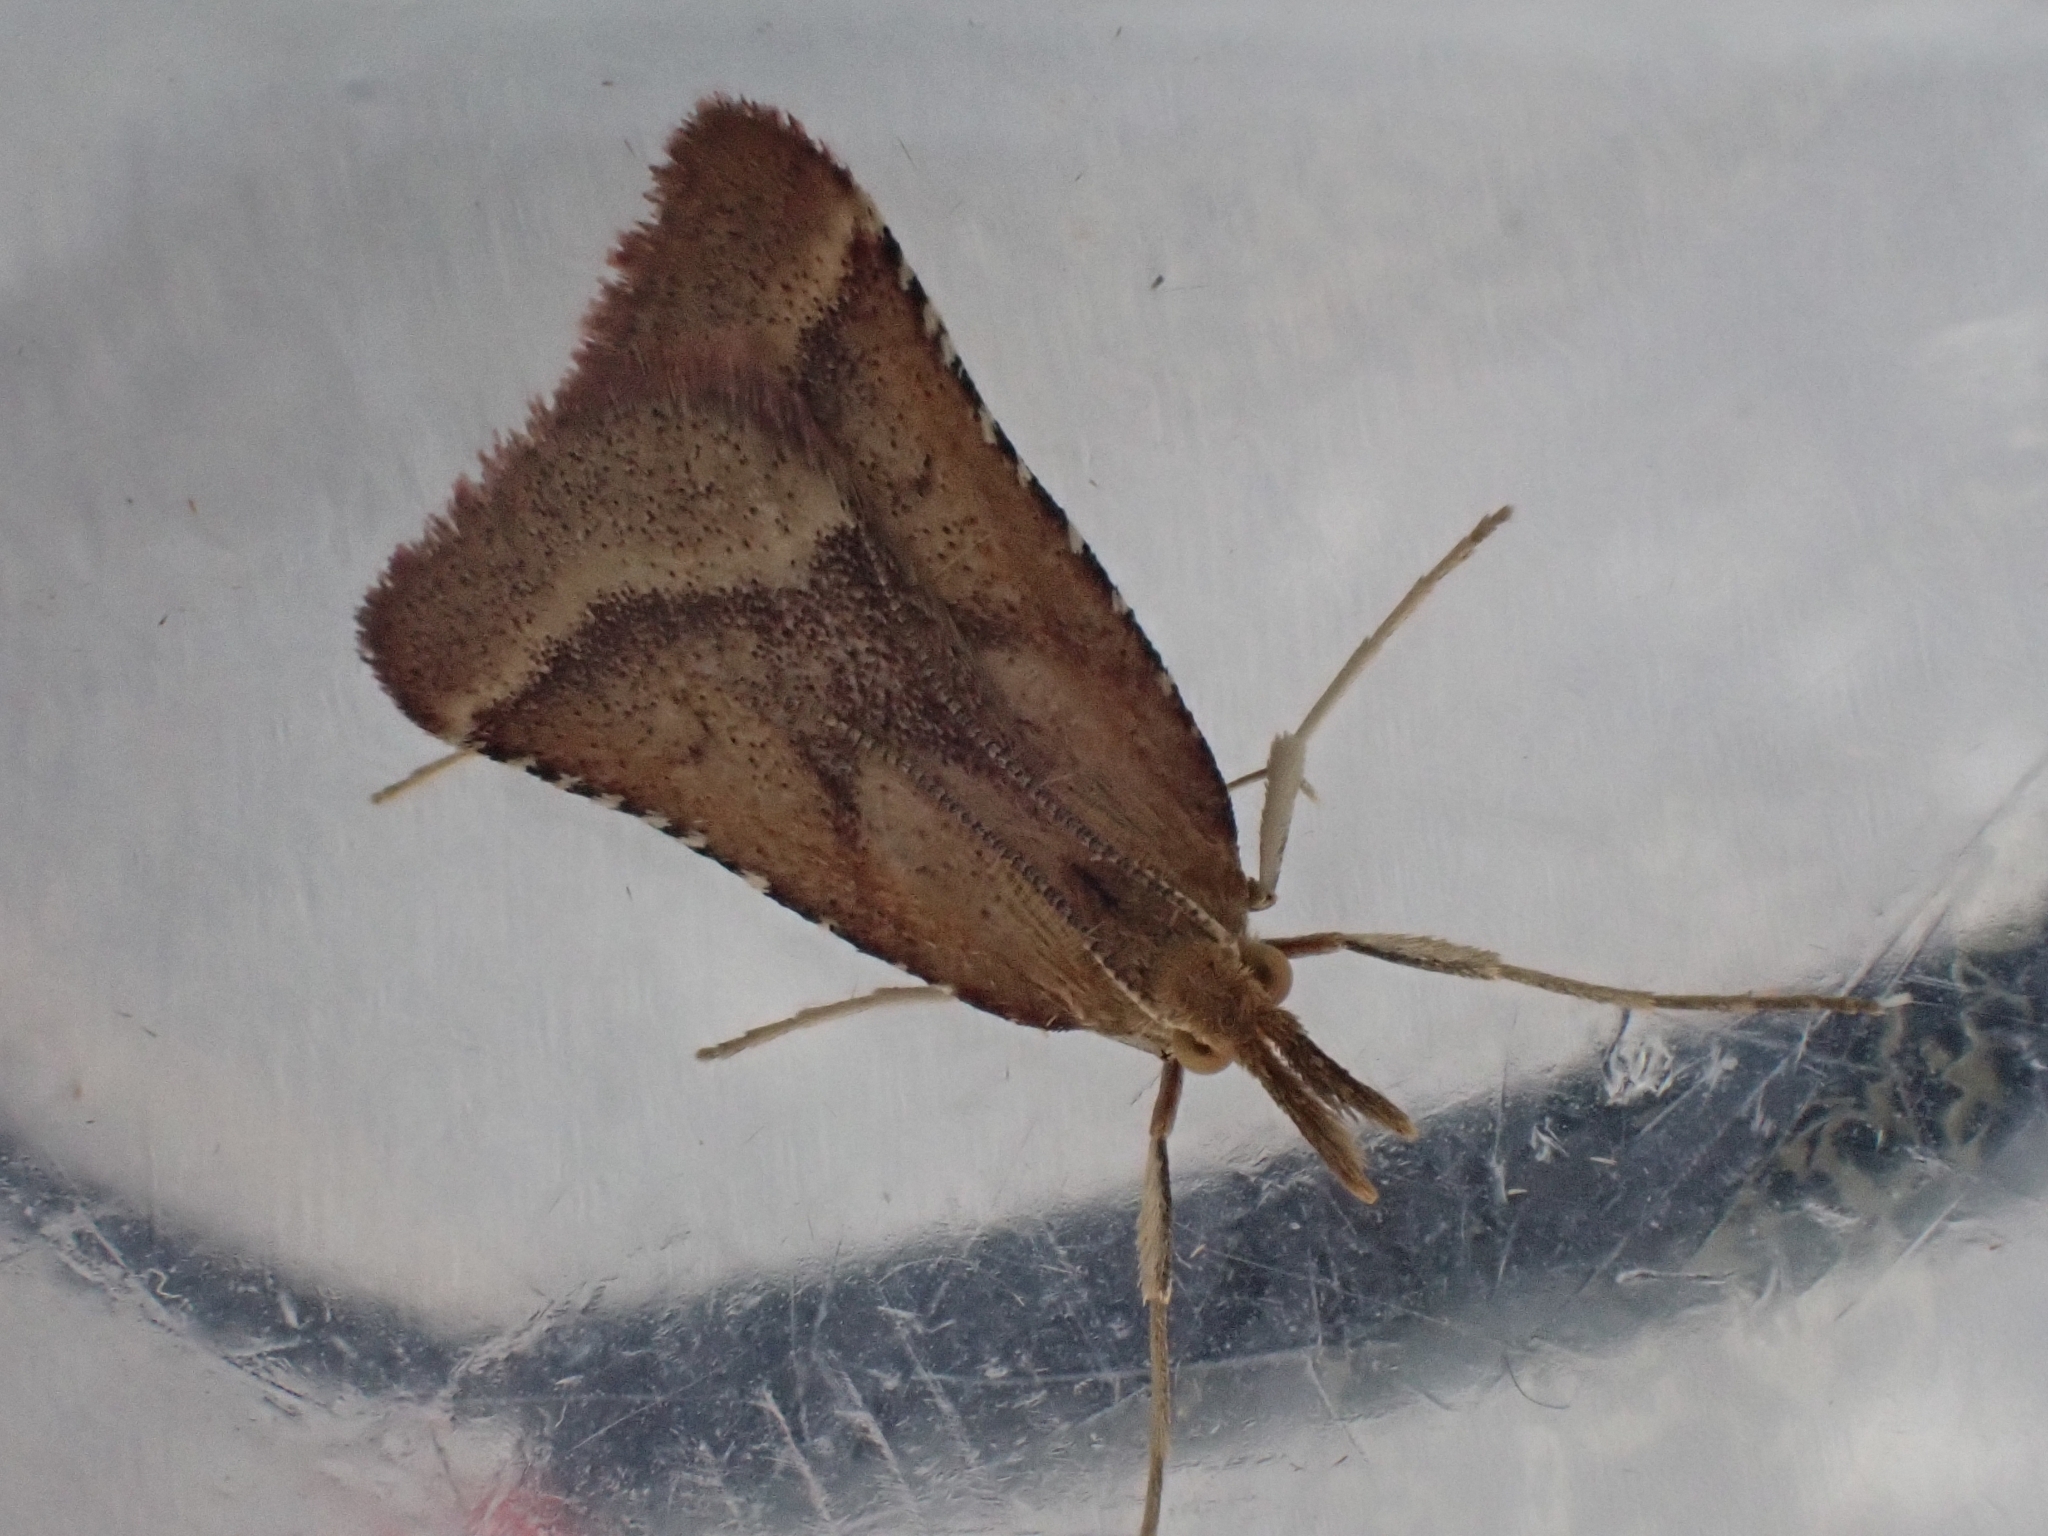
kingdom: Animalia
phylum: Arthropoda
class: Insecta
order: Lepidoptera
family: Pyralidae
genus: Synaphe
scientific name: Synaphe punctalis
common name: Long-legged tabby
